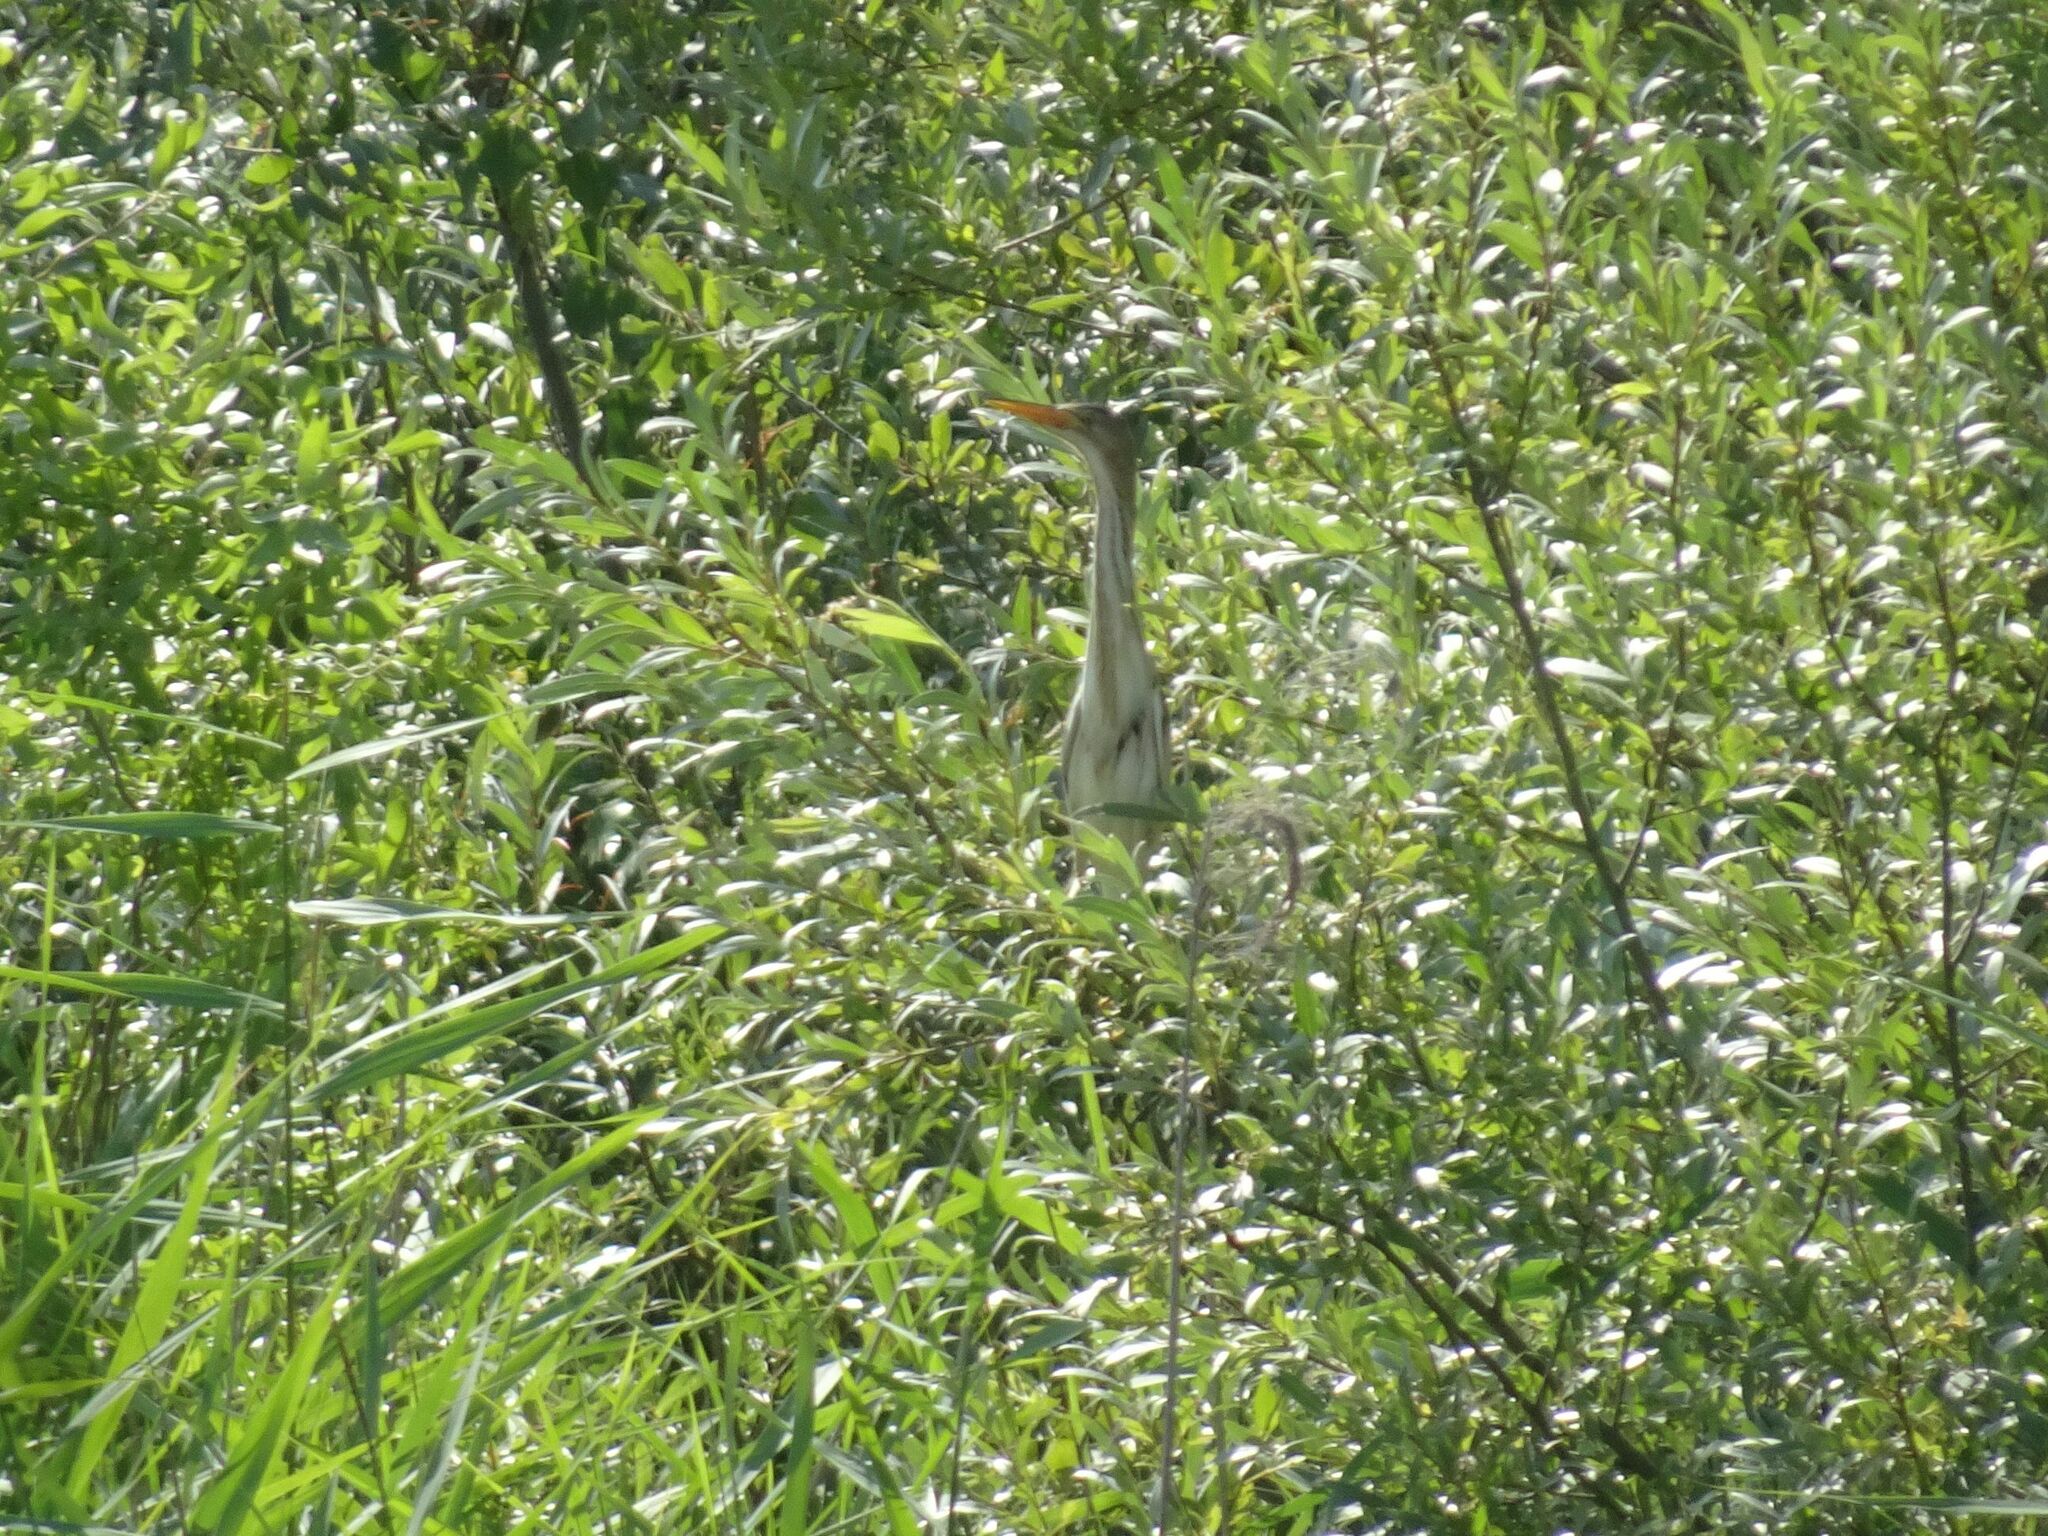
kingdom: Animalia
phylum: Chordata
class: Aves
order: Pelecaniformes
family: Ardeidae
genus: Ixobrychus
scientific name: Ixobrychus minutus
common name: Little bittern
